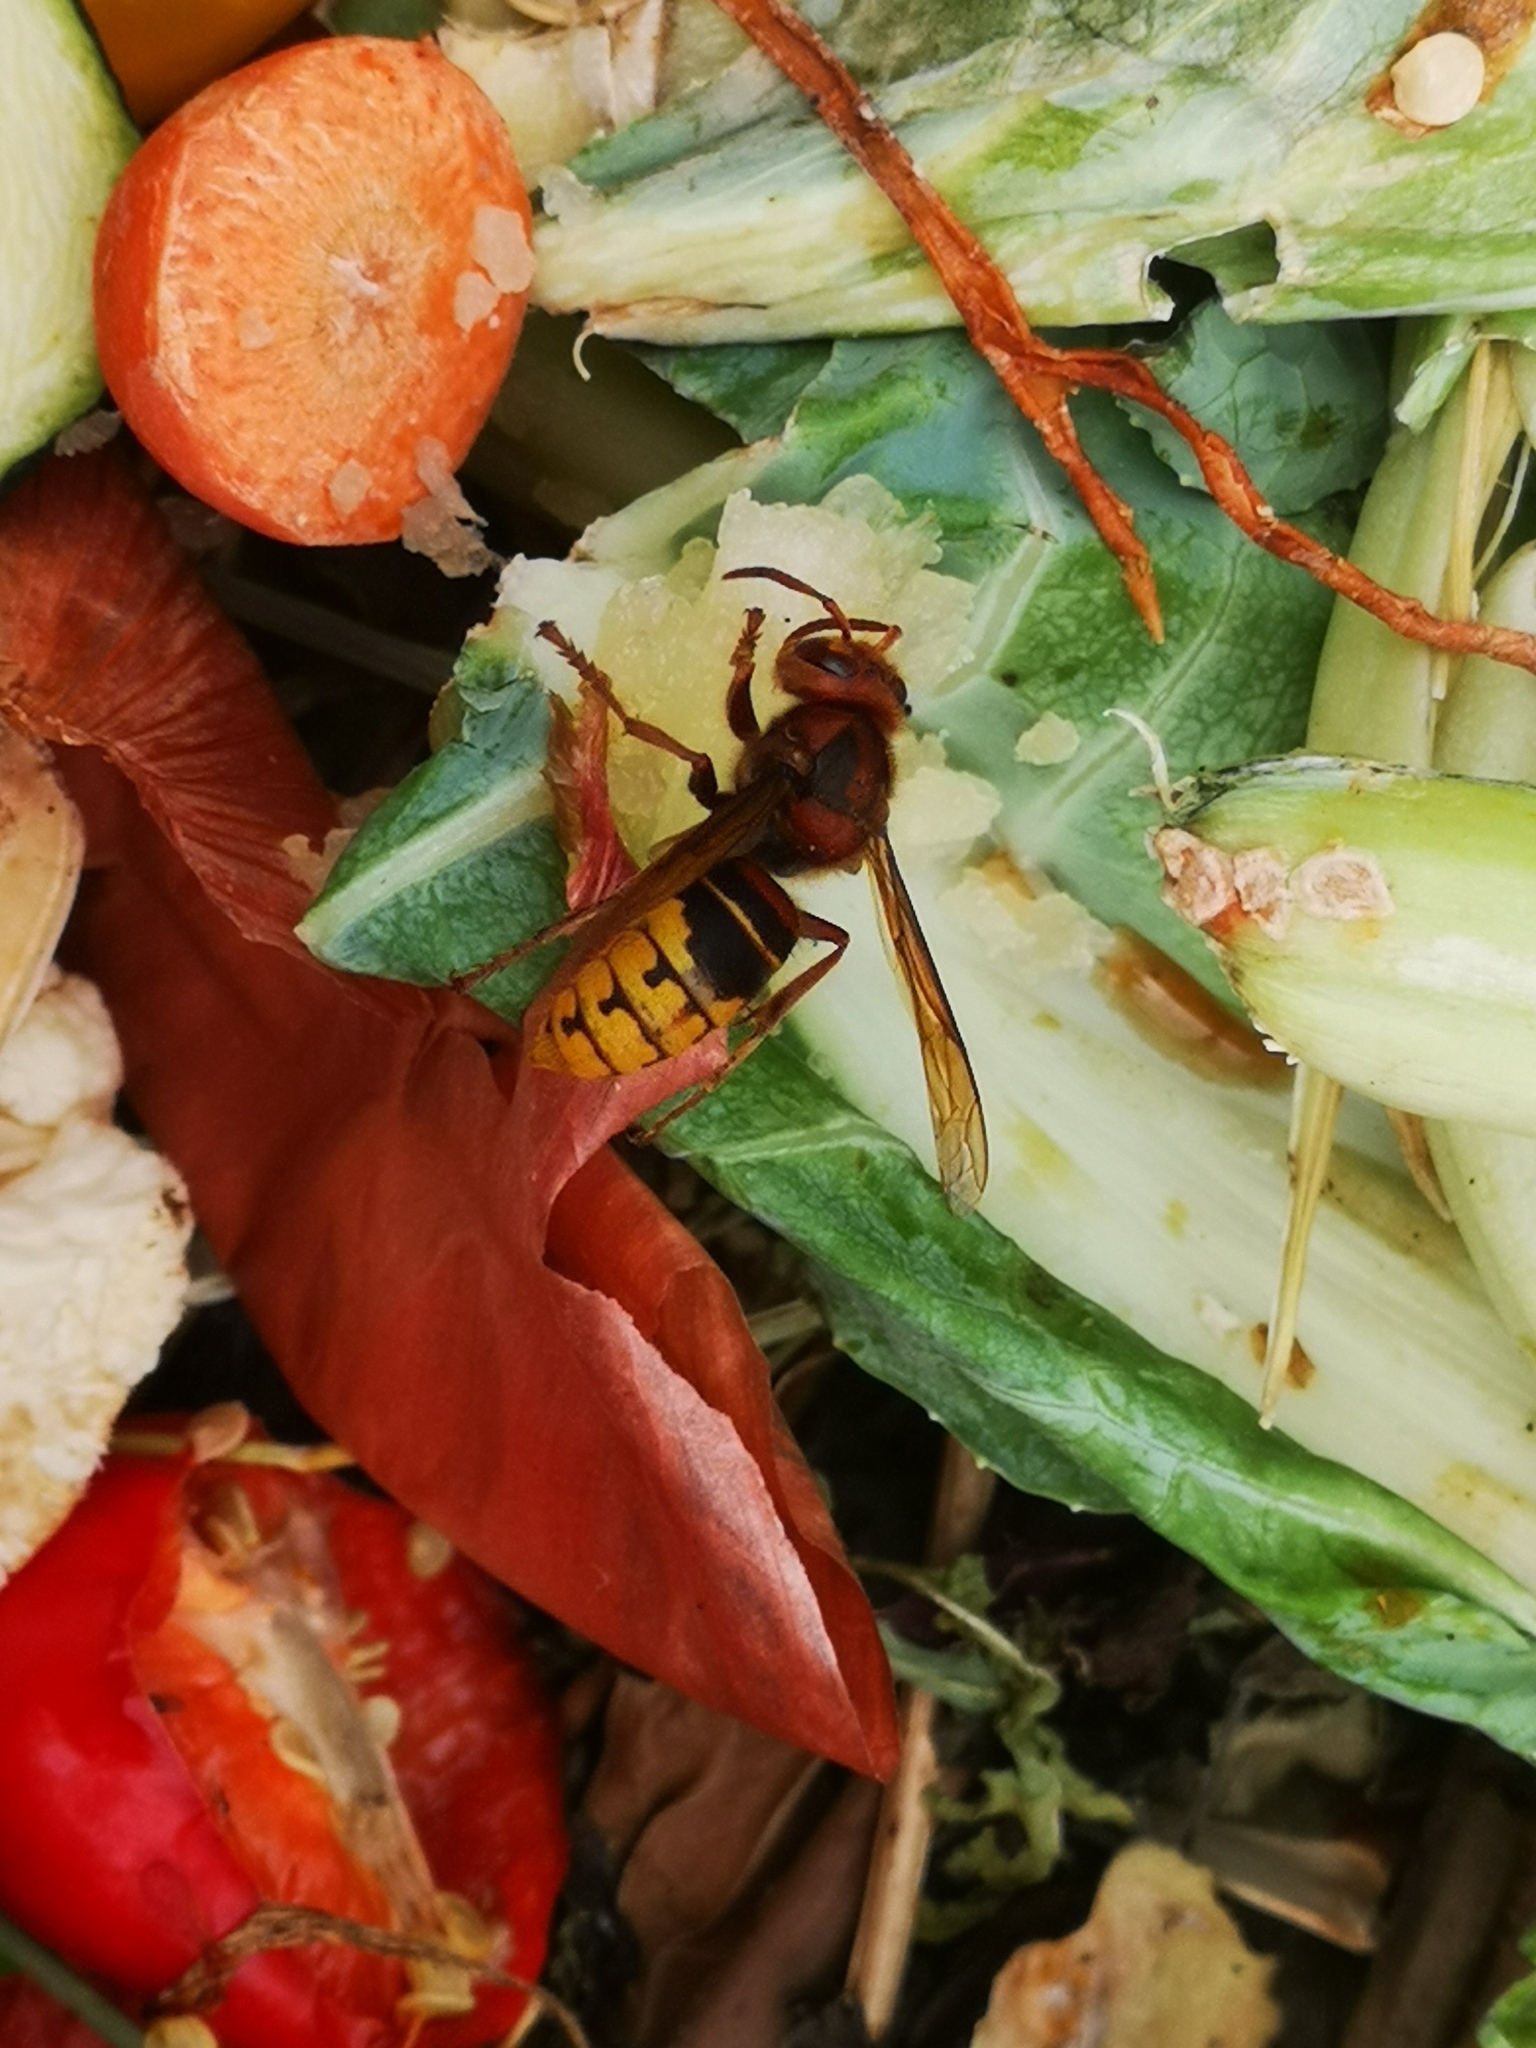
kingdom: Animalia
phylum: Arthropoda
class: Insecta
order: Hymenoptera
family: Vespidae
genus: Vespa
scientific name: Vespa crabro
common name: Hornet
